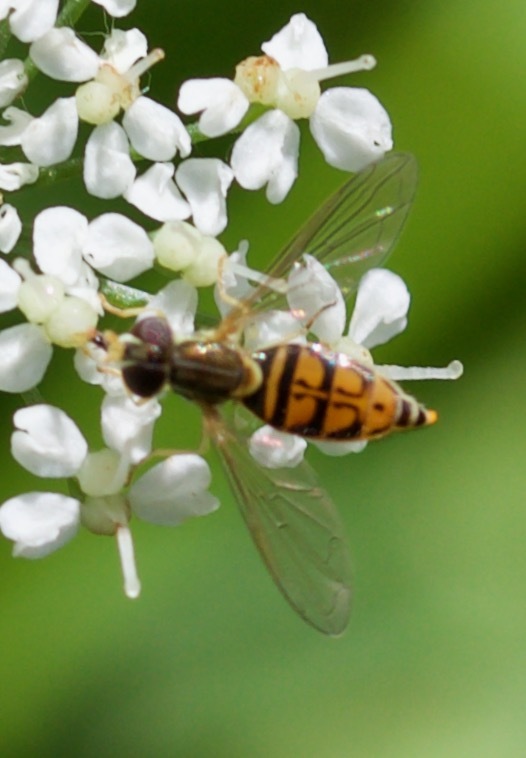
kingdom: Animalia
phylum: Arthropoda
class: Insecta
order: Diptera
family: Syrphidae
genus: Toxomerus
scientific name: Toxomerus marginatus
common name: Syrphid fly
